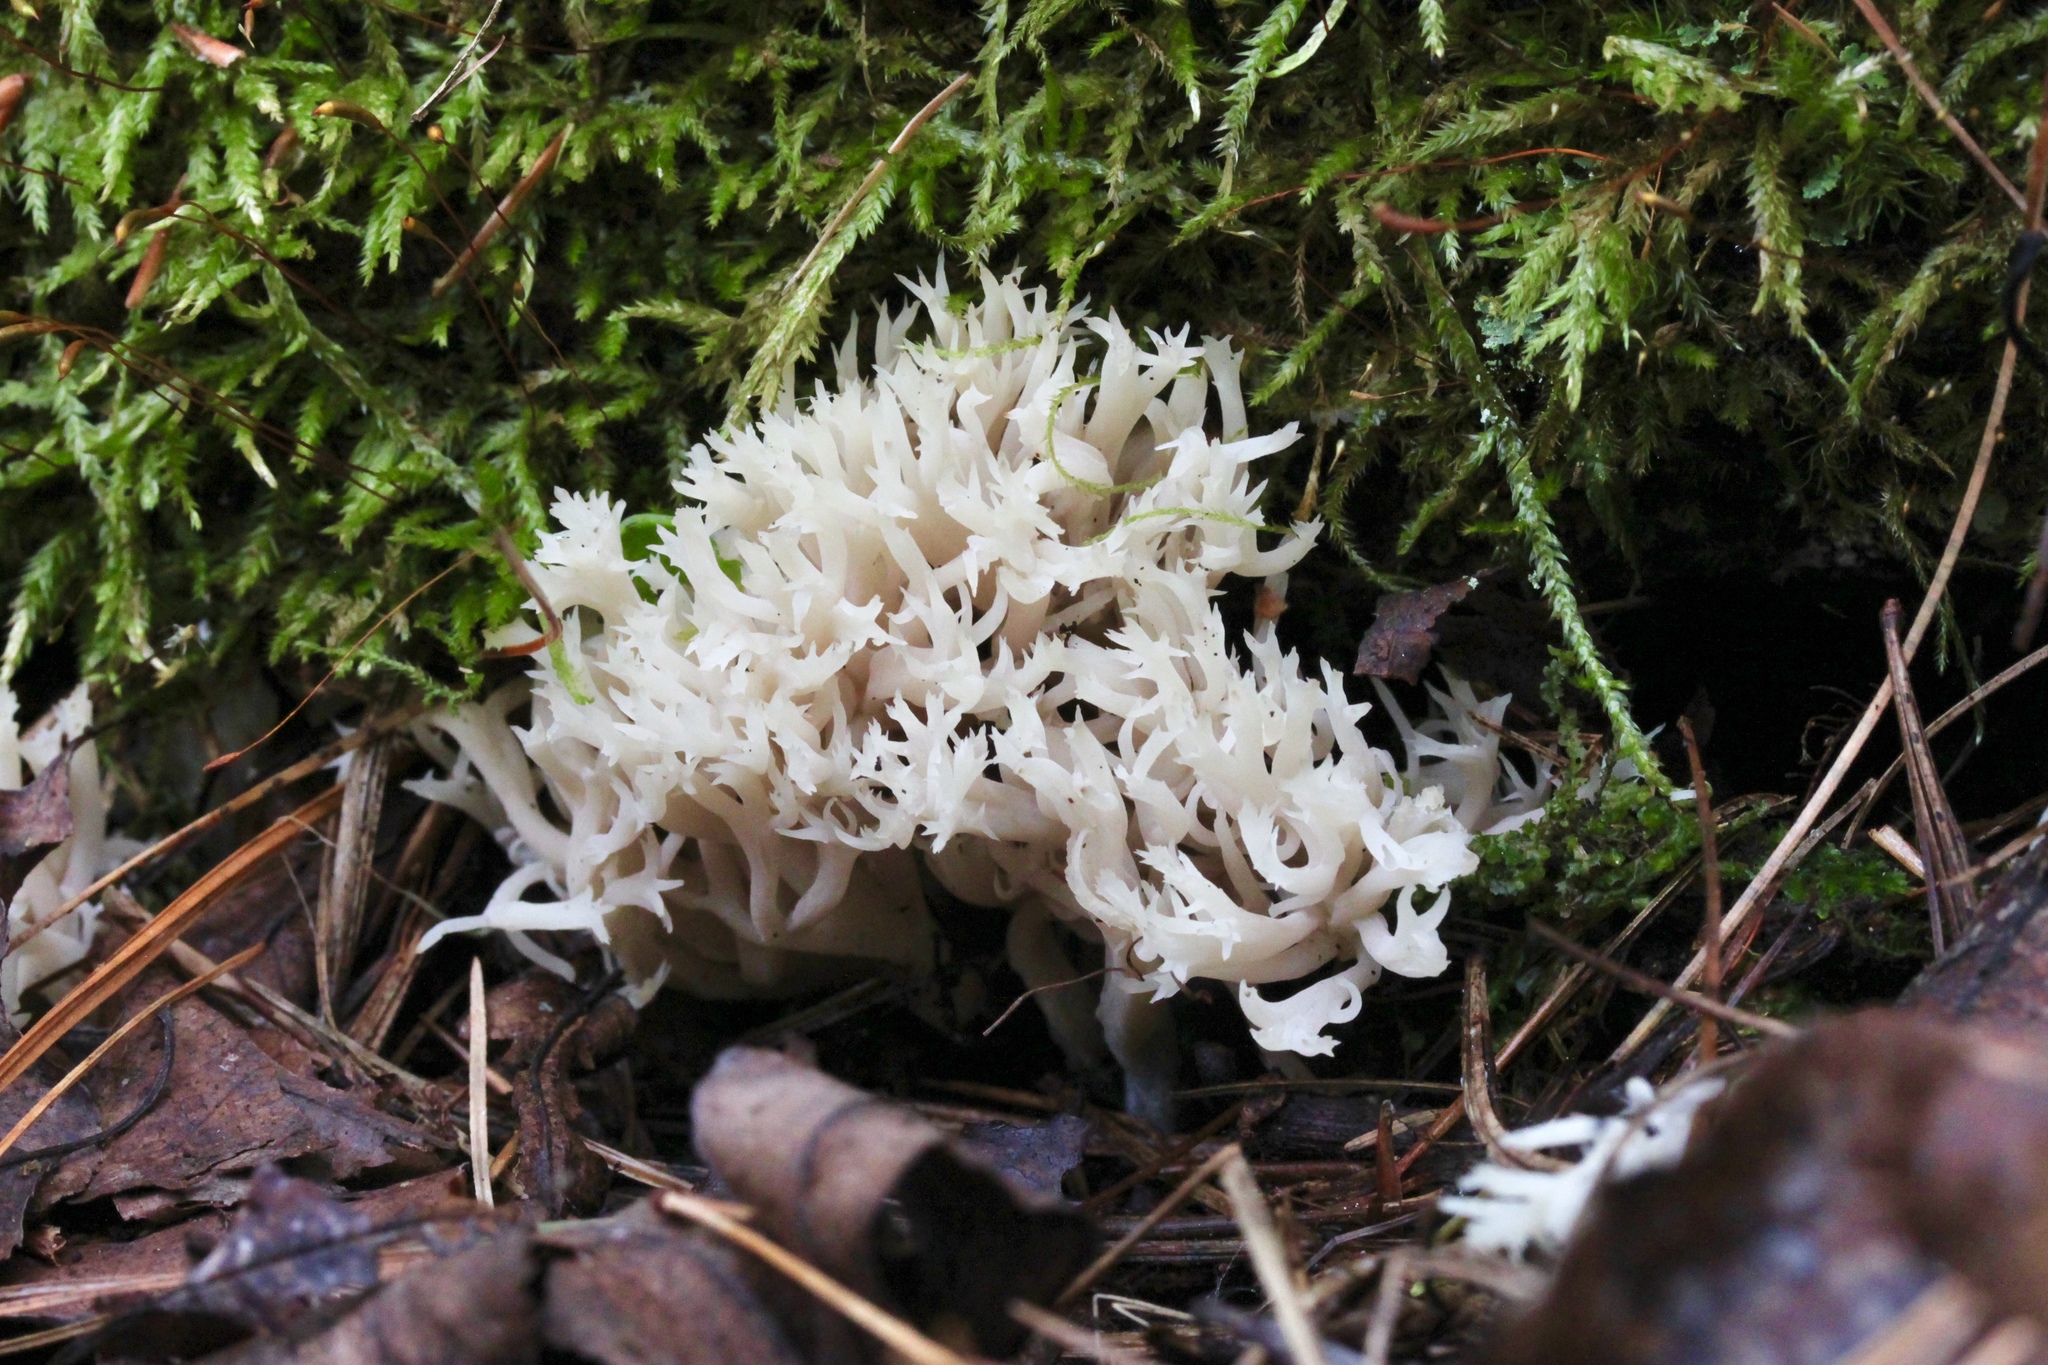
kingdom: Fungi
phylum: Basidiomycota
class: Agaricomycetes
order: Cantharellales
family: Hydnaceae
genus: Clavulina
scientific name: Clavulina coralloides
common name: Crested coral
